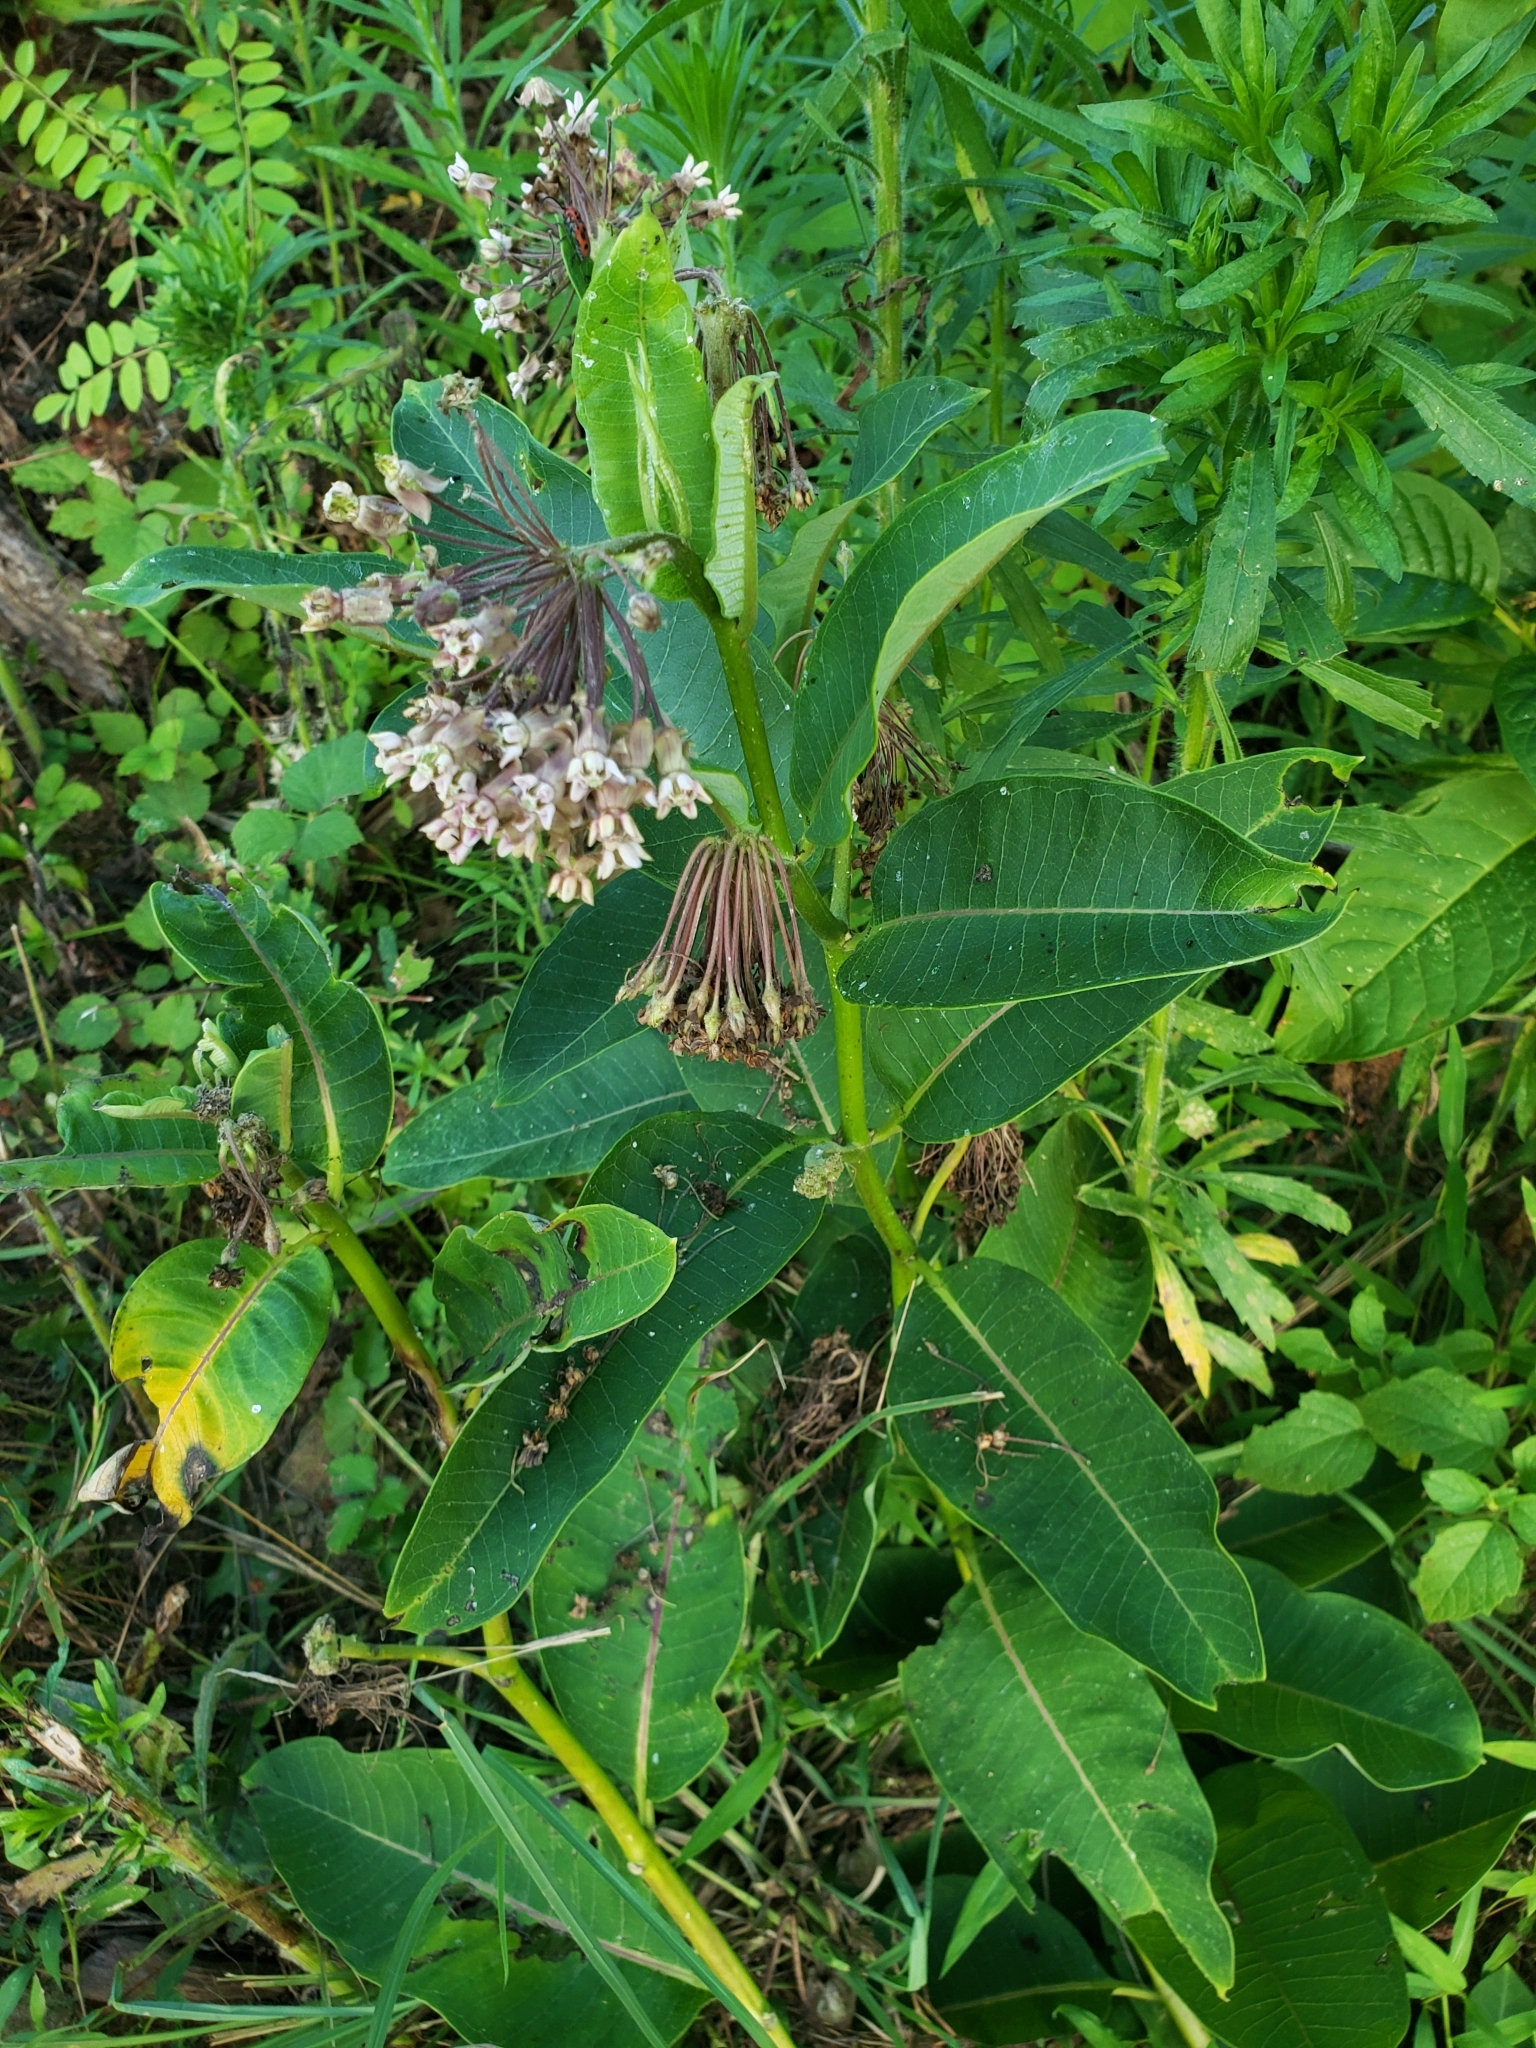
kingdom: Plantae
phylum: Tracheophyta
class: Magnoliopsida
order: Gentianales
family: Apocynaceae
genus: Asclepias
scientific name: Asclepias syriaca
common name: Common milkweed
